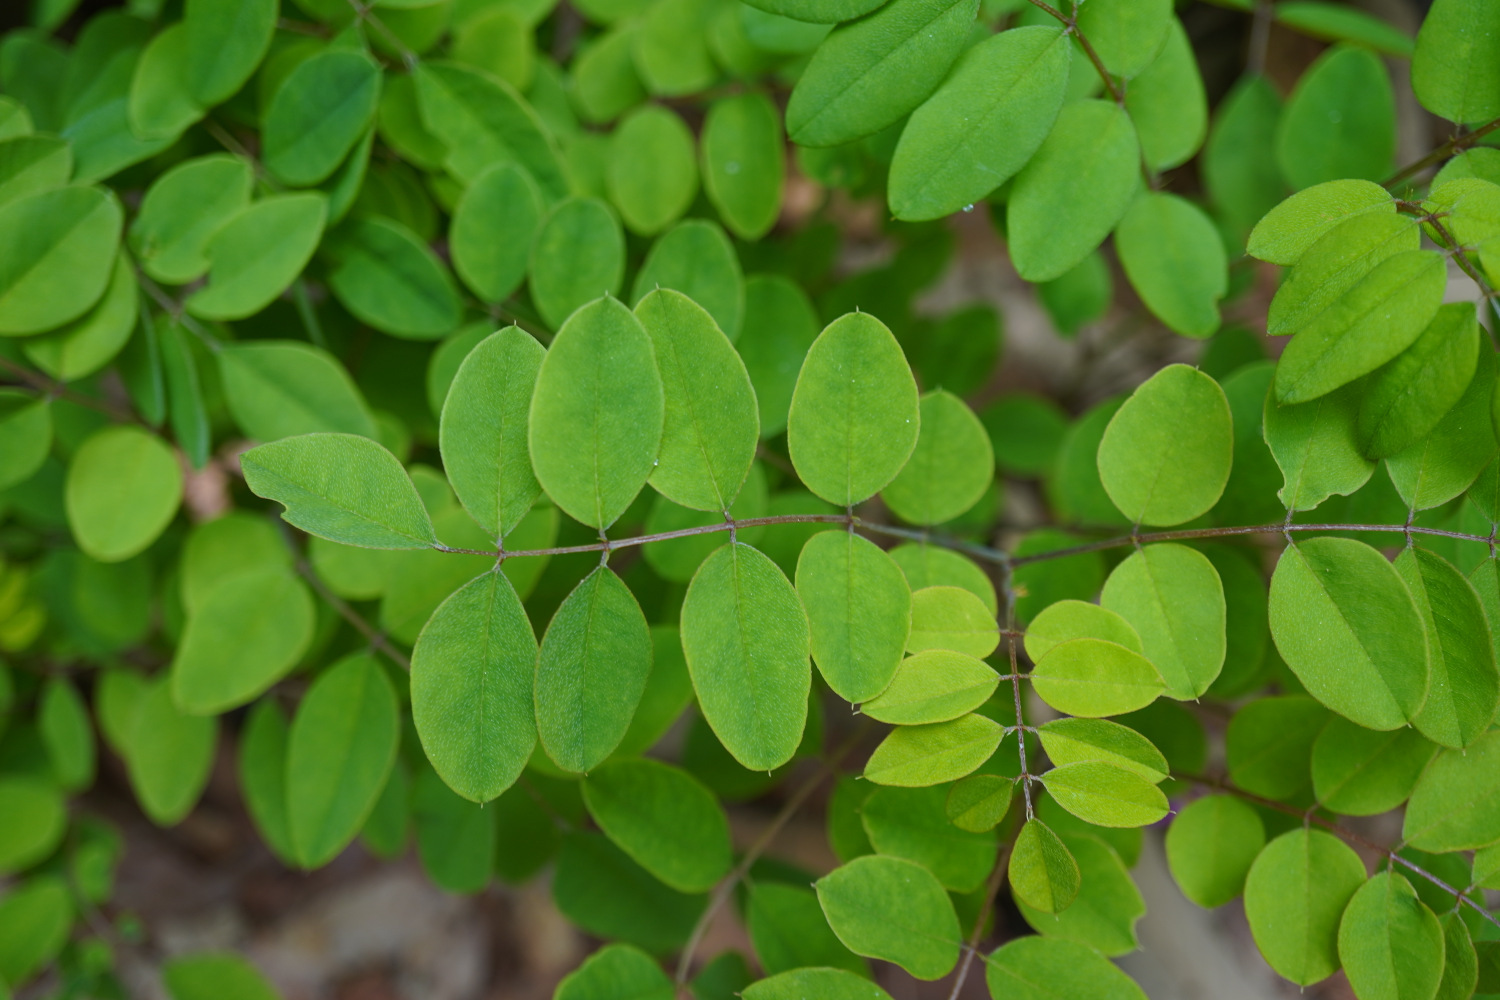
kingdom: Plantae
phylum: Tracheophyta
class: Magnoliopsida
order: Fabales
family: Fabaceae
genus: Indigofera
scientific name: Indigofera kirilowii
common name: Kirilow's indigo
